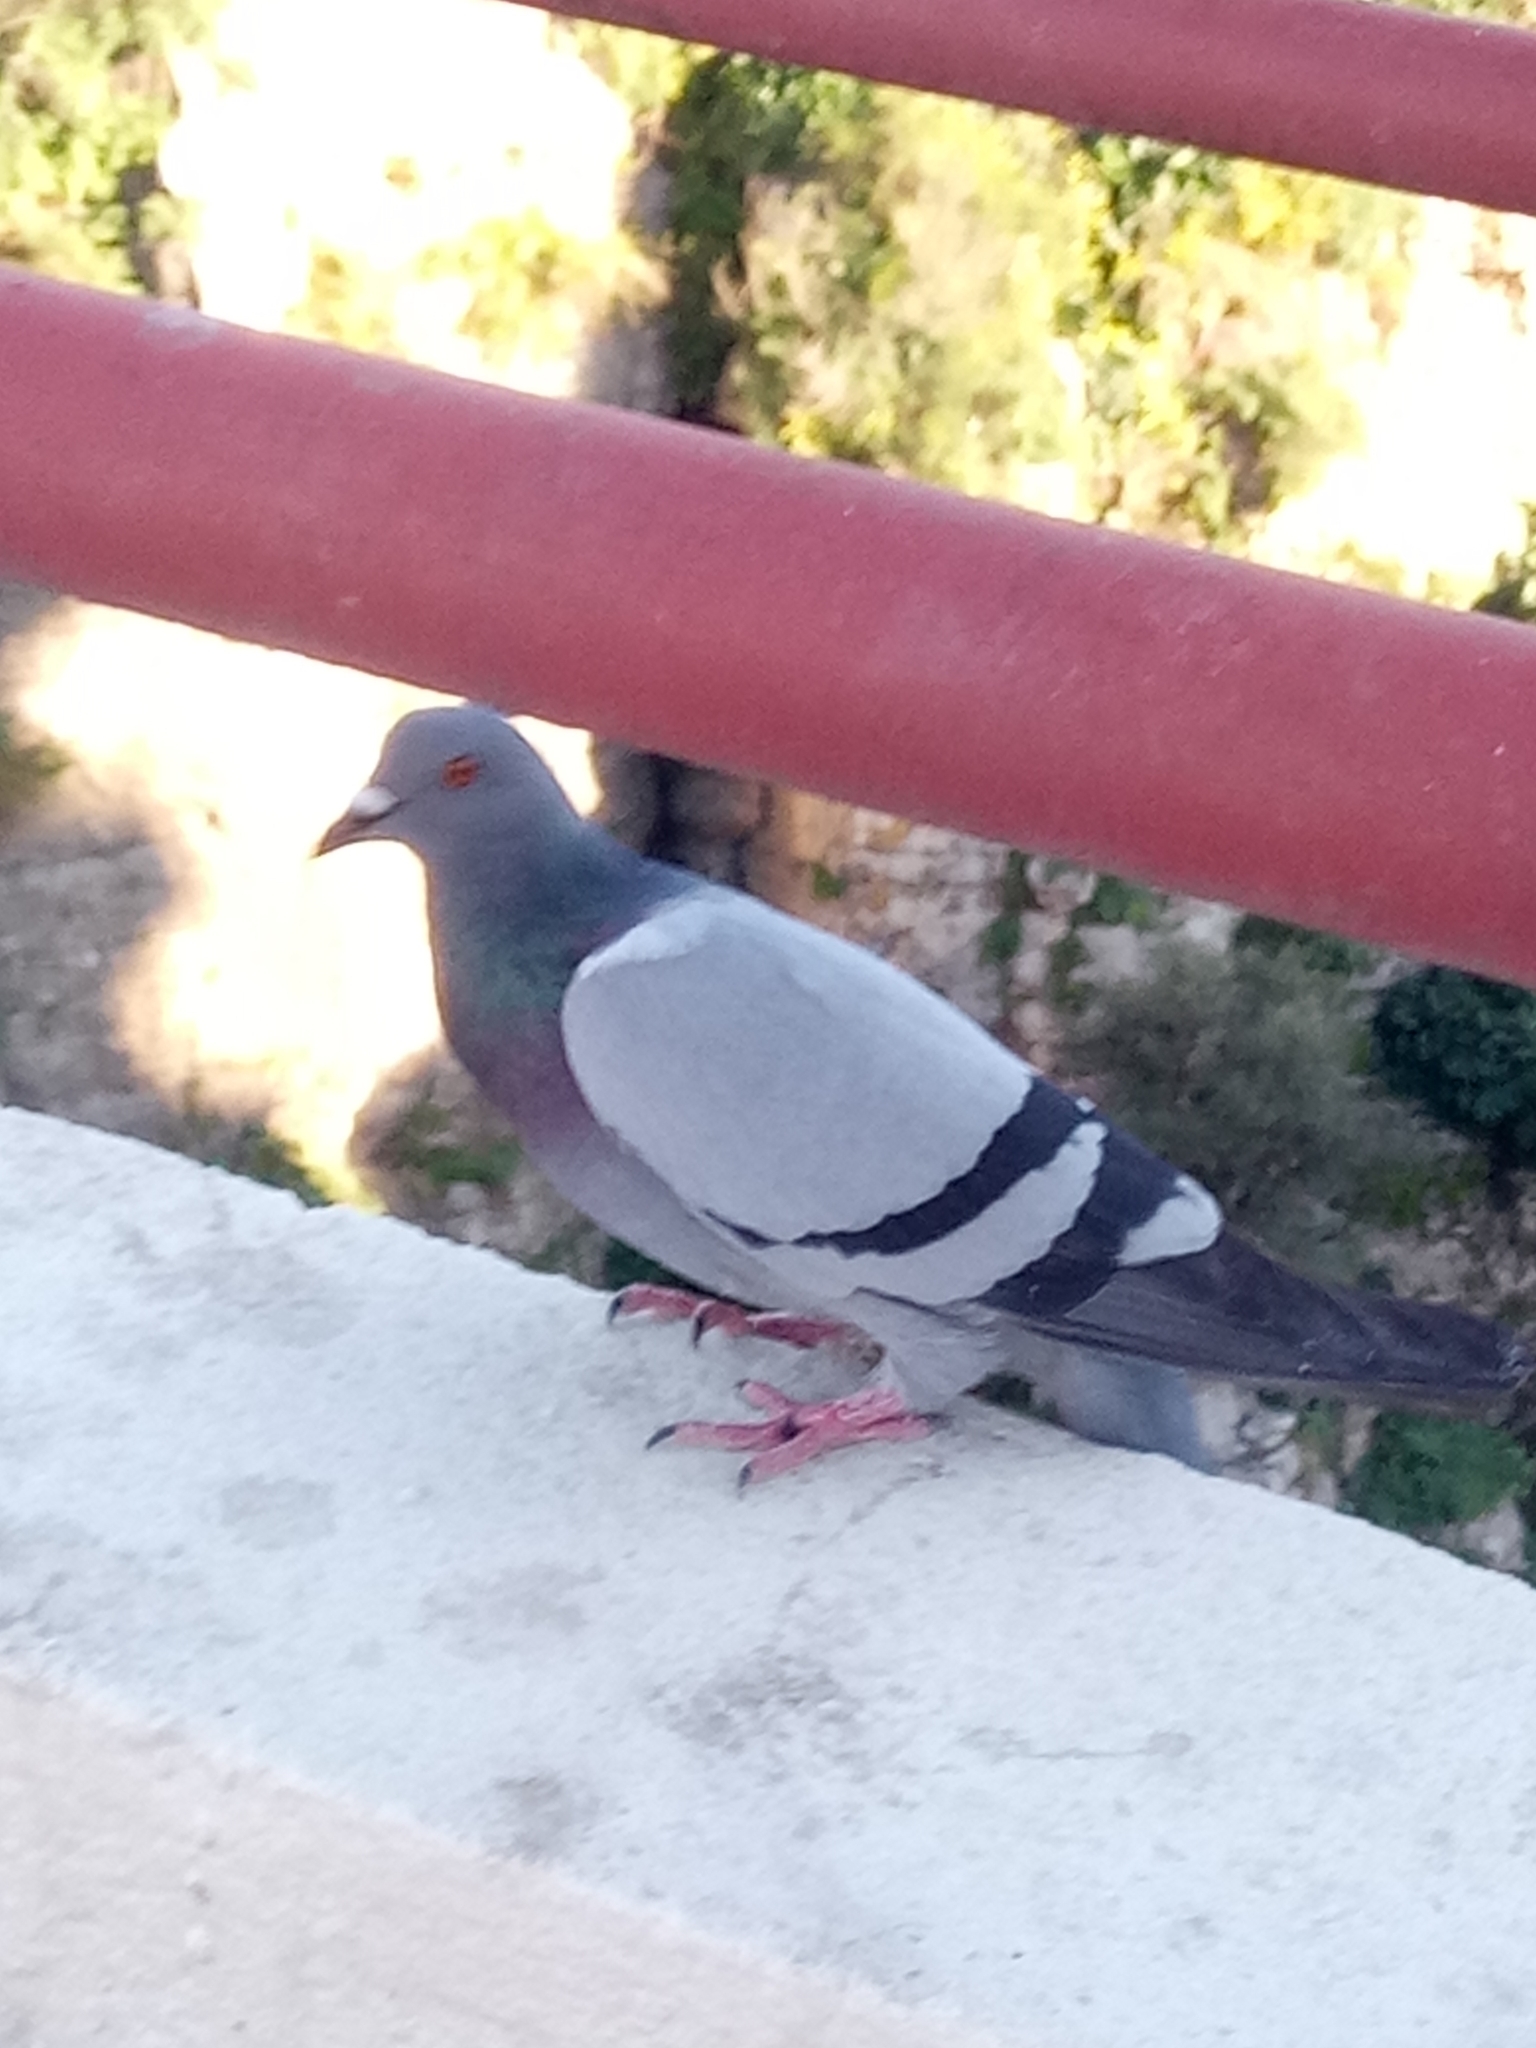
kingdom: Animalia
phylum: Chordata
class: Aves
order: Columbiformes
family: Columbidae
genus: Columba
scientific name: Columba livia
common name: Rock pigeon
